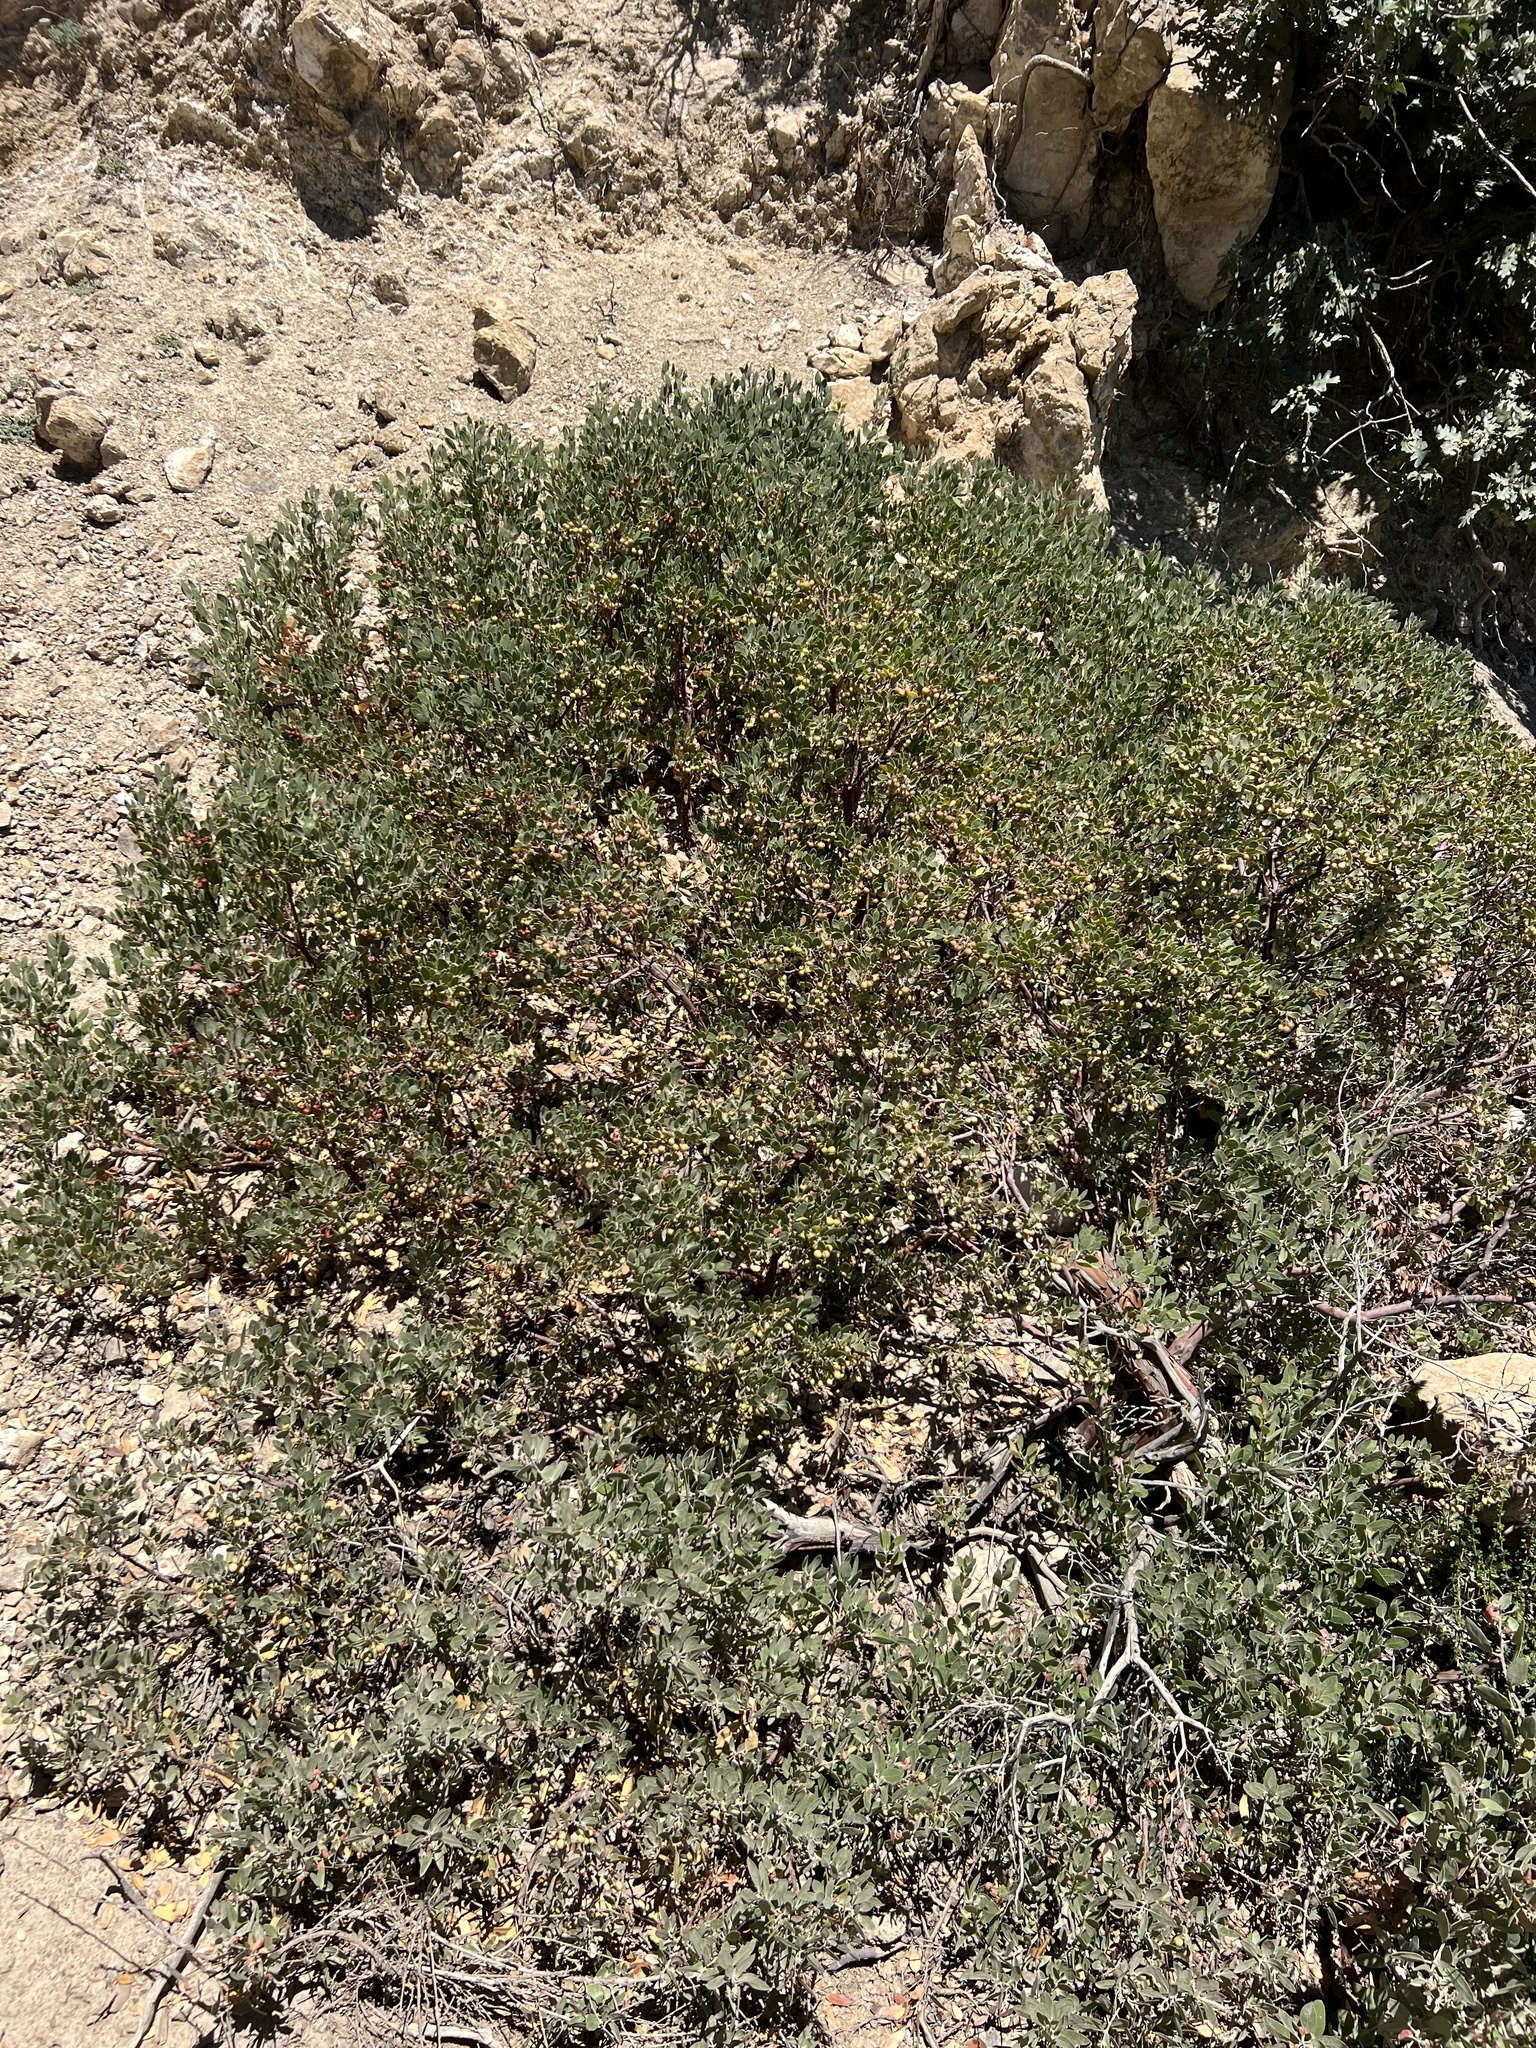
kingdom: Plantae
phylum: Tracheophyta
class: Magnoliopsida
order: Ericales
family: Ericaceae
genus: Arctostaphylos
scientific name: Arctostaphylos pungens
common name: Mexican manzanita
